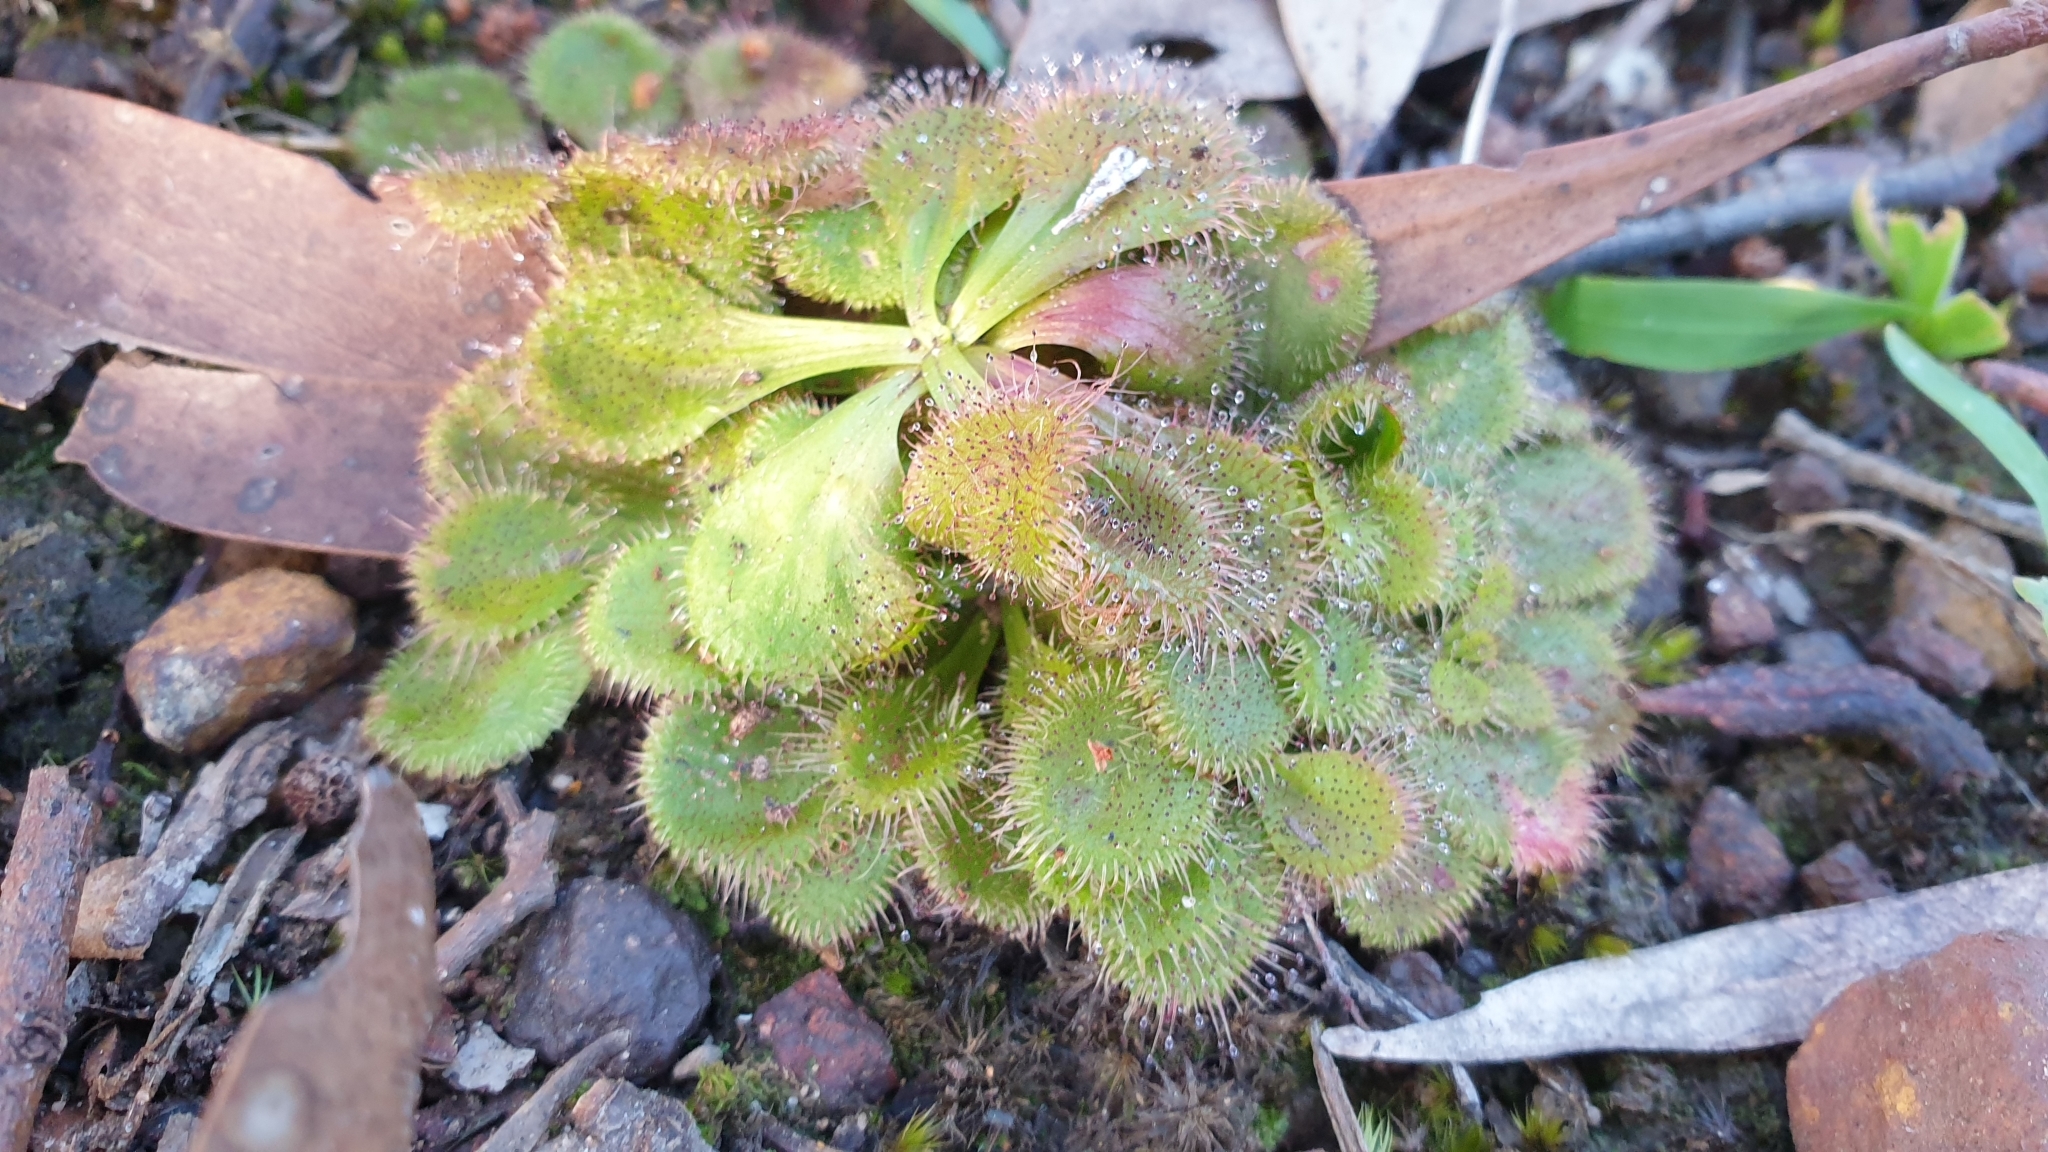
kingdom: Plantae
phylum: Tracheophyta
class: Magnoliopsida
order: Caryophyllales
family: Droseraceae
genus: Drosera
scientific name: Drosera whittakeri
